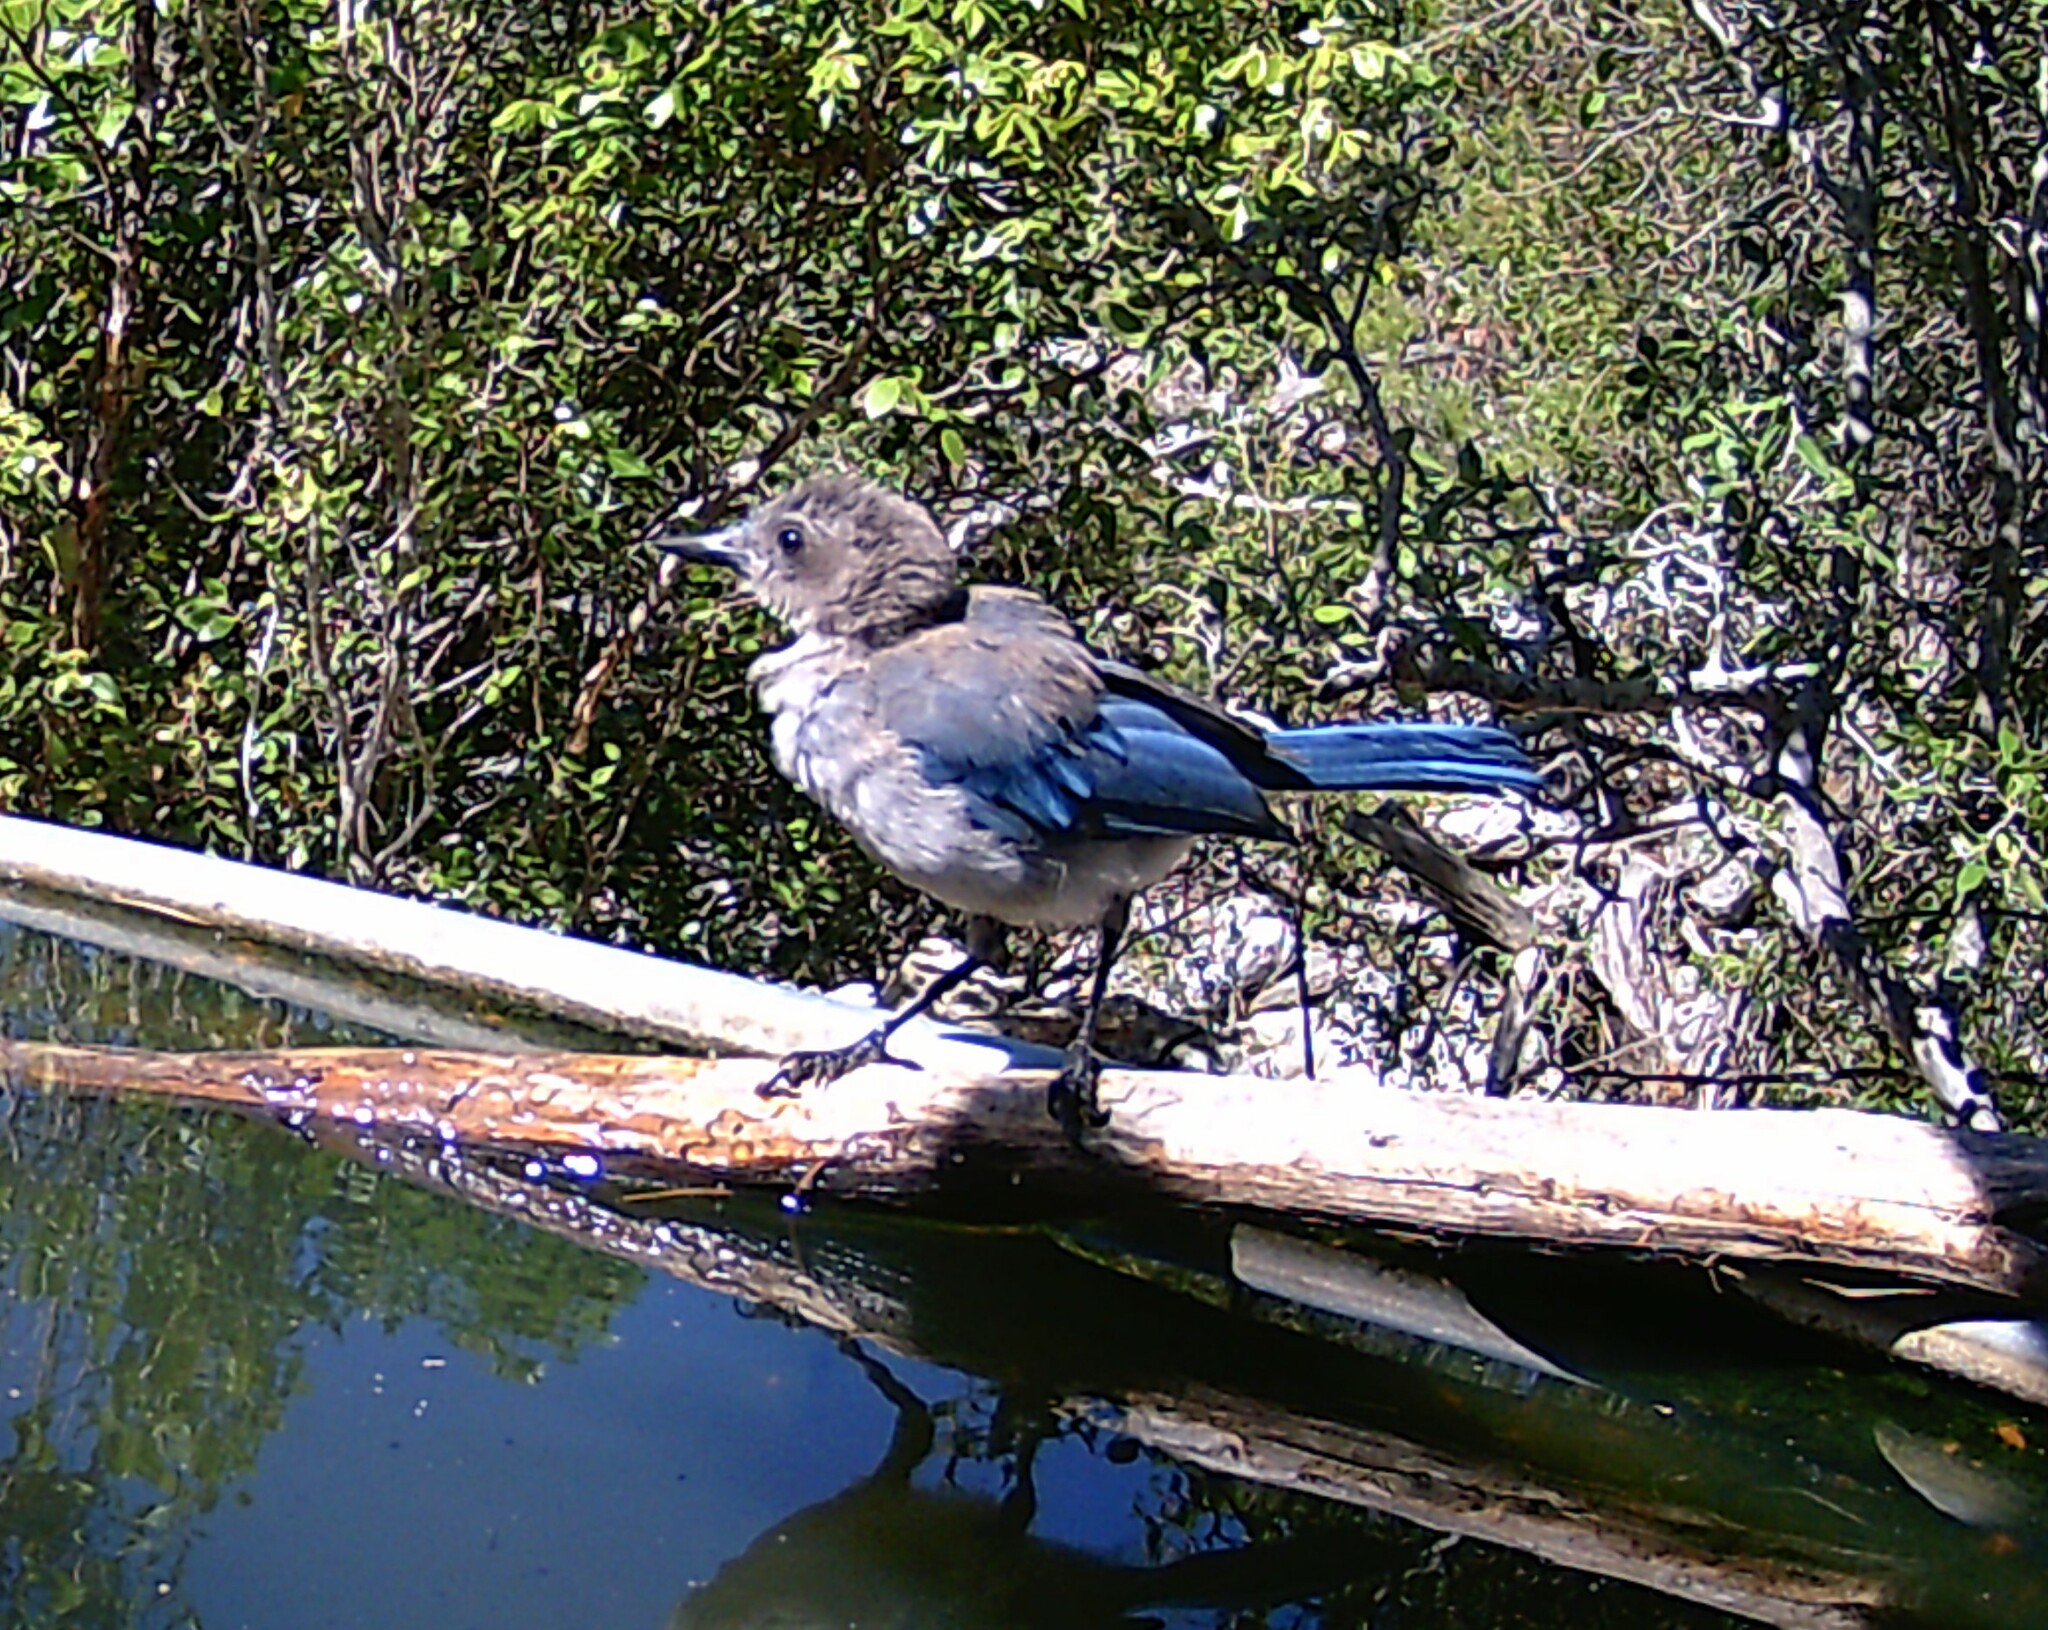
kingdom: Animalia
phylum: Chordata
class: Aves
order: Passeriformes
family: Corvidae
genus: Aphelocoma
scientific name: Aphelocoma woodhouseii
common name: Woodhouse's scrub-jay
